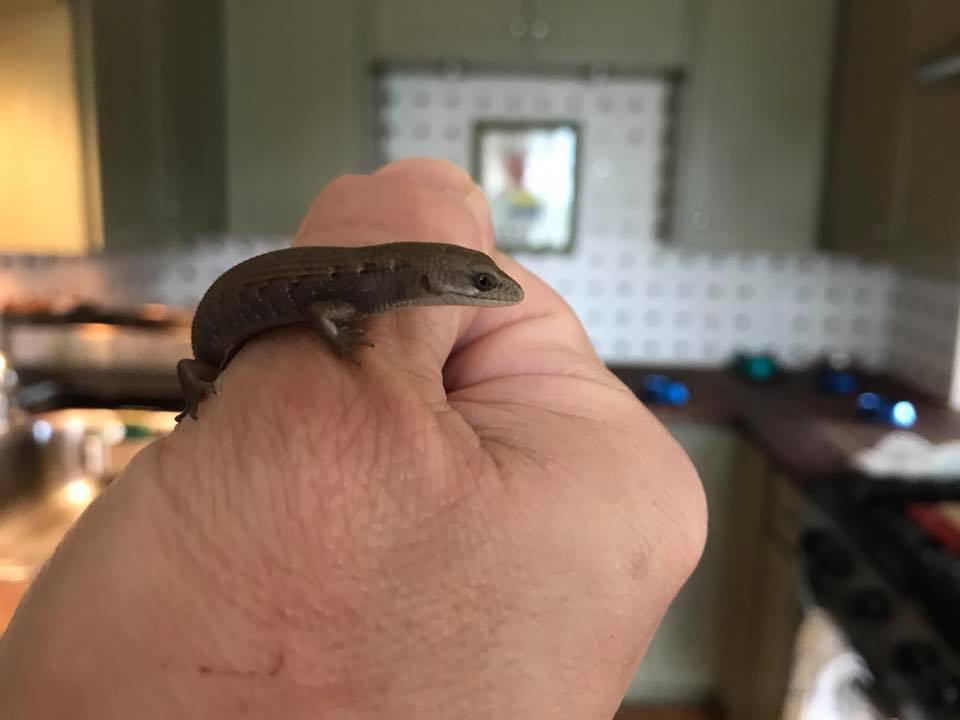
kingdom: Animalia
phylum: Chordata
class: Squamata
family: Anguidae
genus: Elgaria
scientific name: Elgaria multicarinata
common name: Southern alligator lizard
